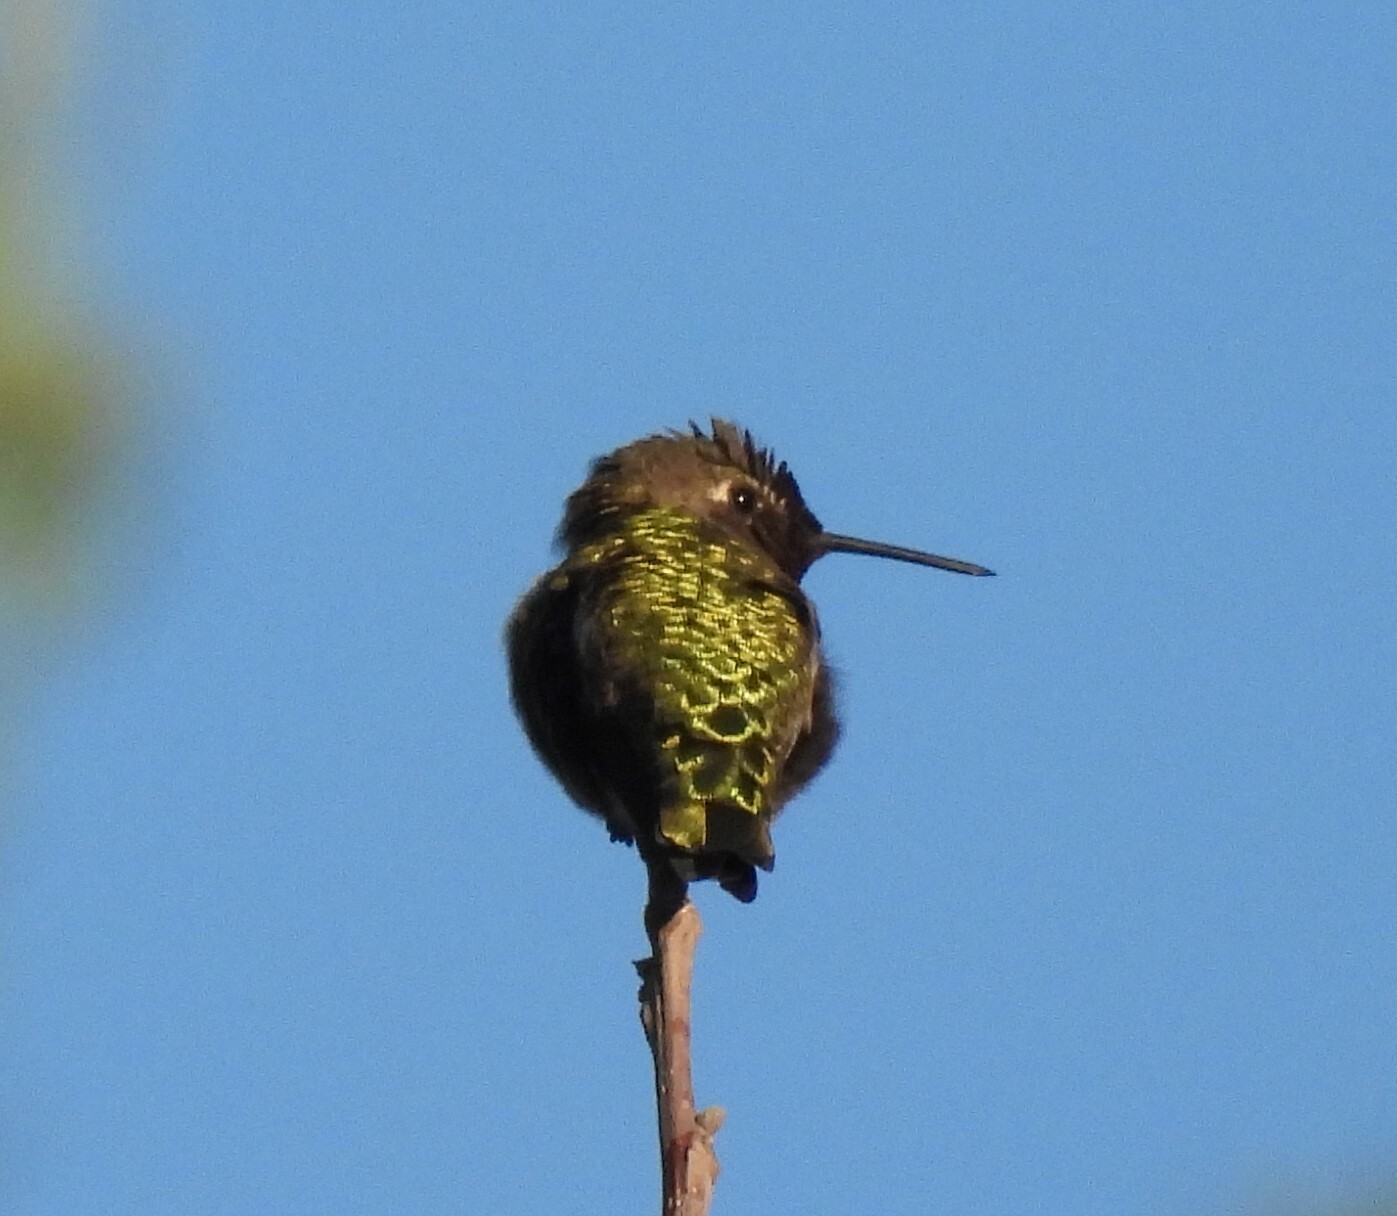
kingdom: Animalia
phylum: Chordata
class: Aves
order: Apodiformes
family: Trochilidae
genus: Calypte
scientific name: Calypte anna
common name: Anna's hummingbird
